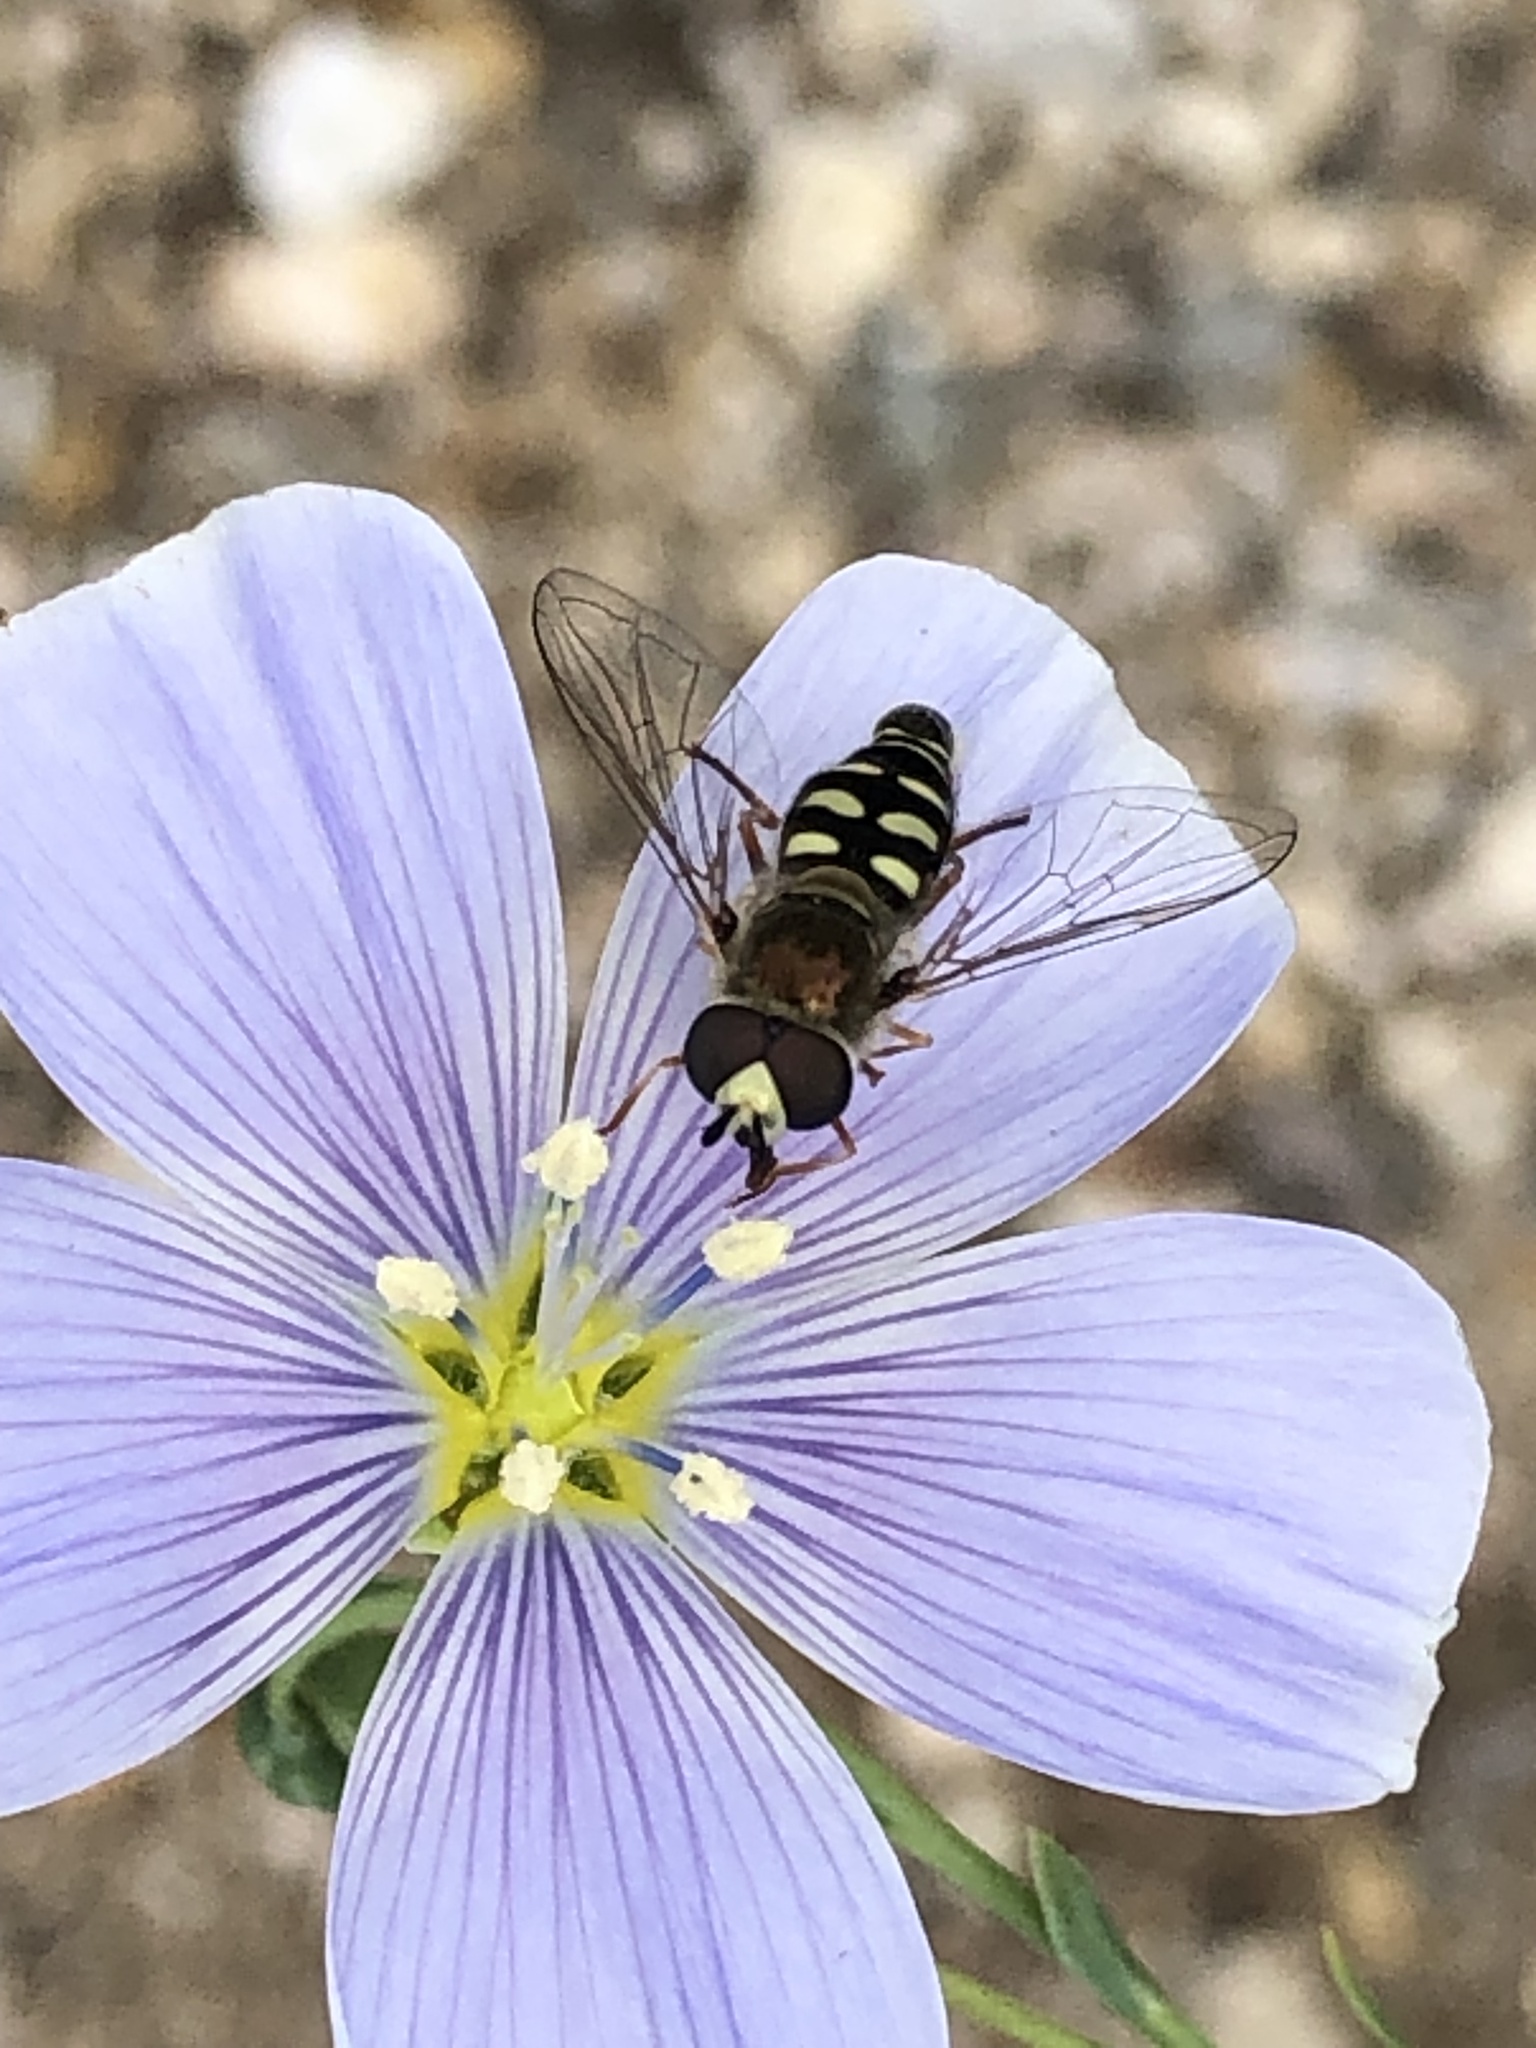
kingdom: Animalia
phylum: Arthropoda
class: Insecta
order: Diptera
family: Syrphidae
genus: Eupeodes
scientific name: Eupeodes volucris
